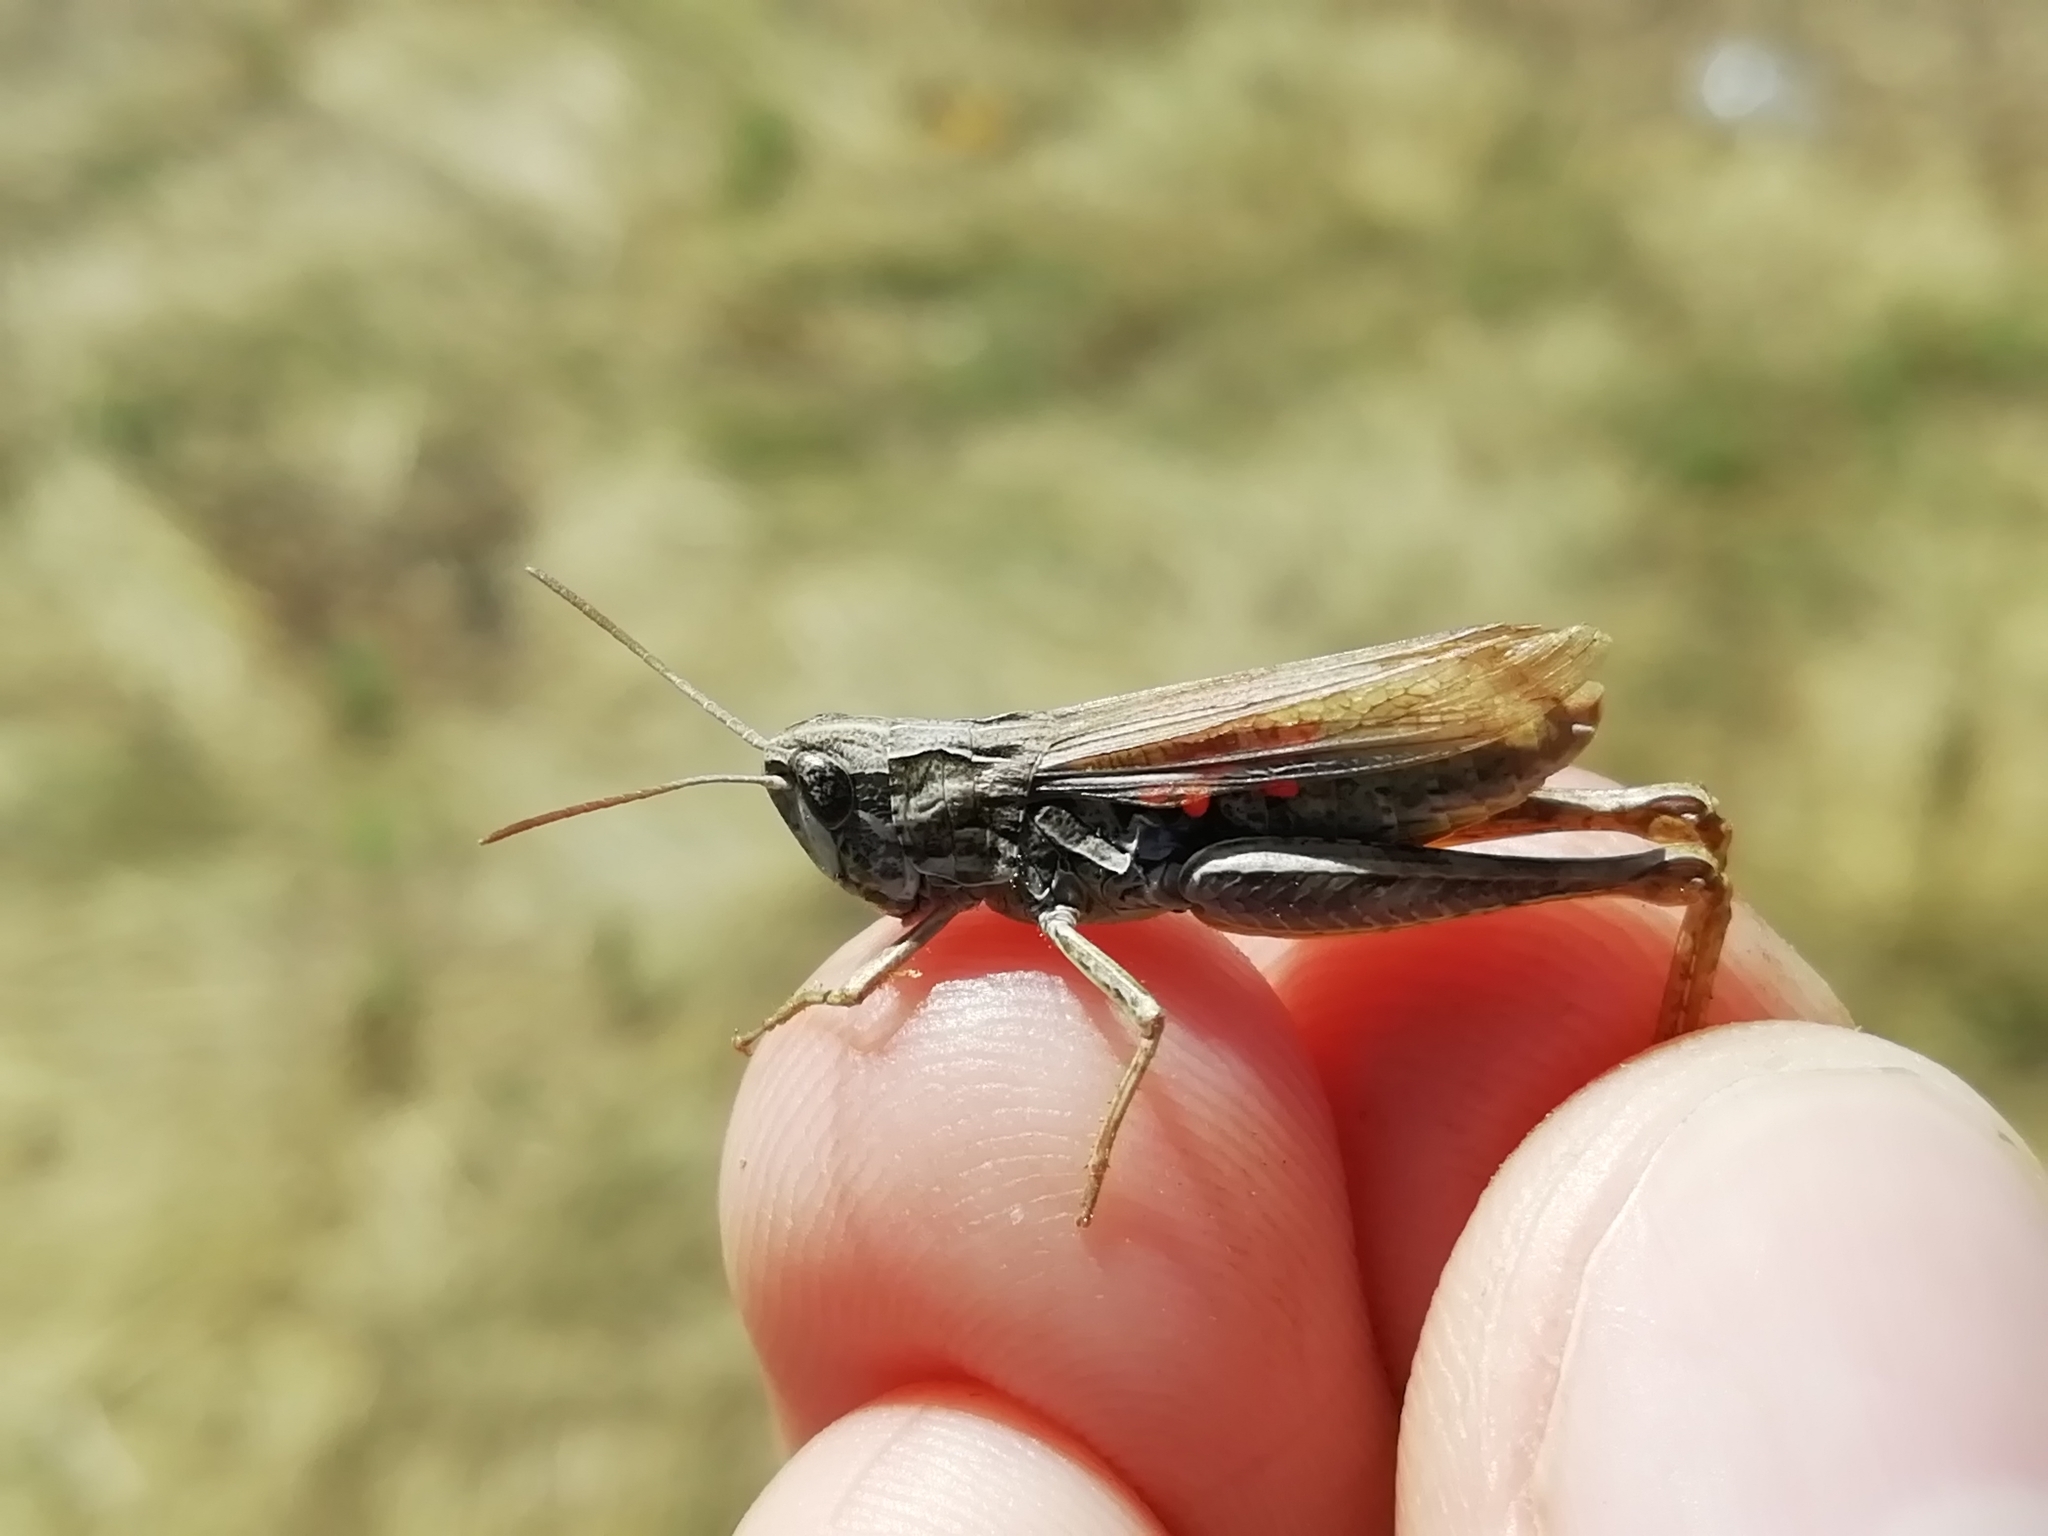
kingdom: Animalia
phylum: Arthropoda
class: Insecta
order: Orthoptera
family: Acrididae
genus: Chorthippus
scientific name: Chorthippus apricarius
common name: Upland field grasshopper
